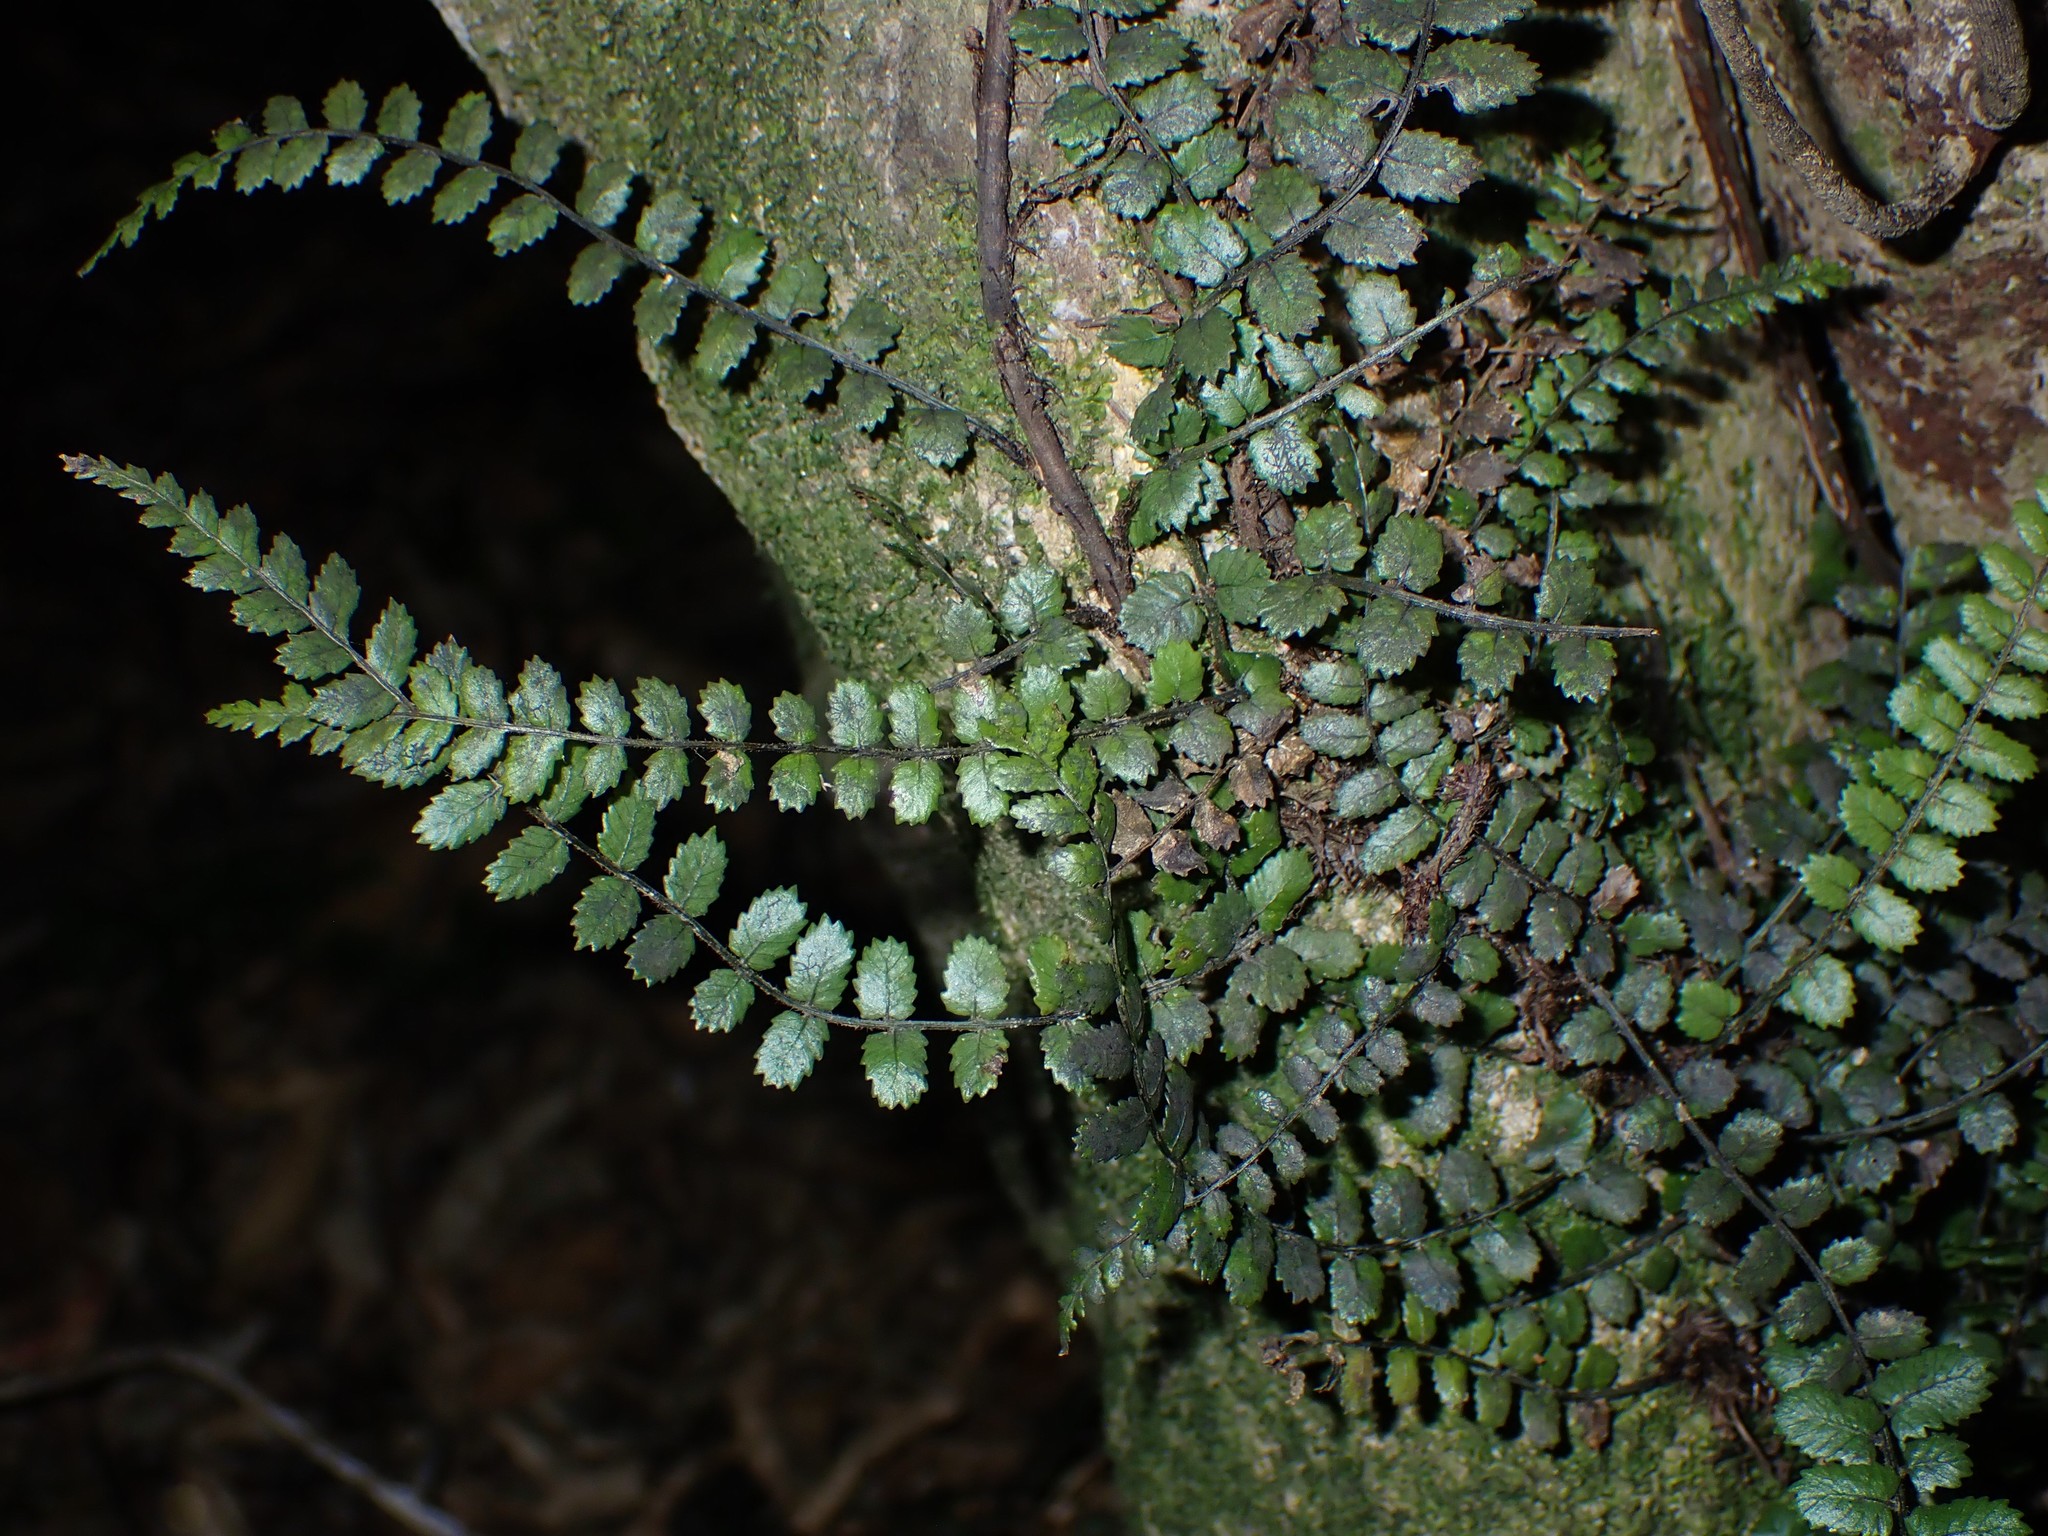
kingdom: Plantae
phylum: Tracheophyta
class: Polypodiopsida
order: Polypodiales
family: Blechnaceae
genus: Icarus
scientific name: Icarus filiformis
